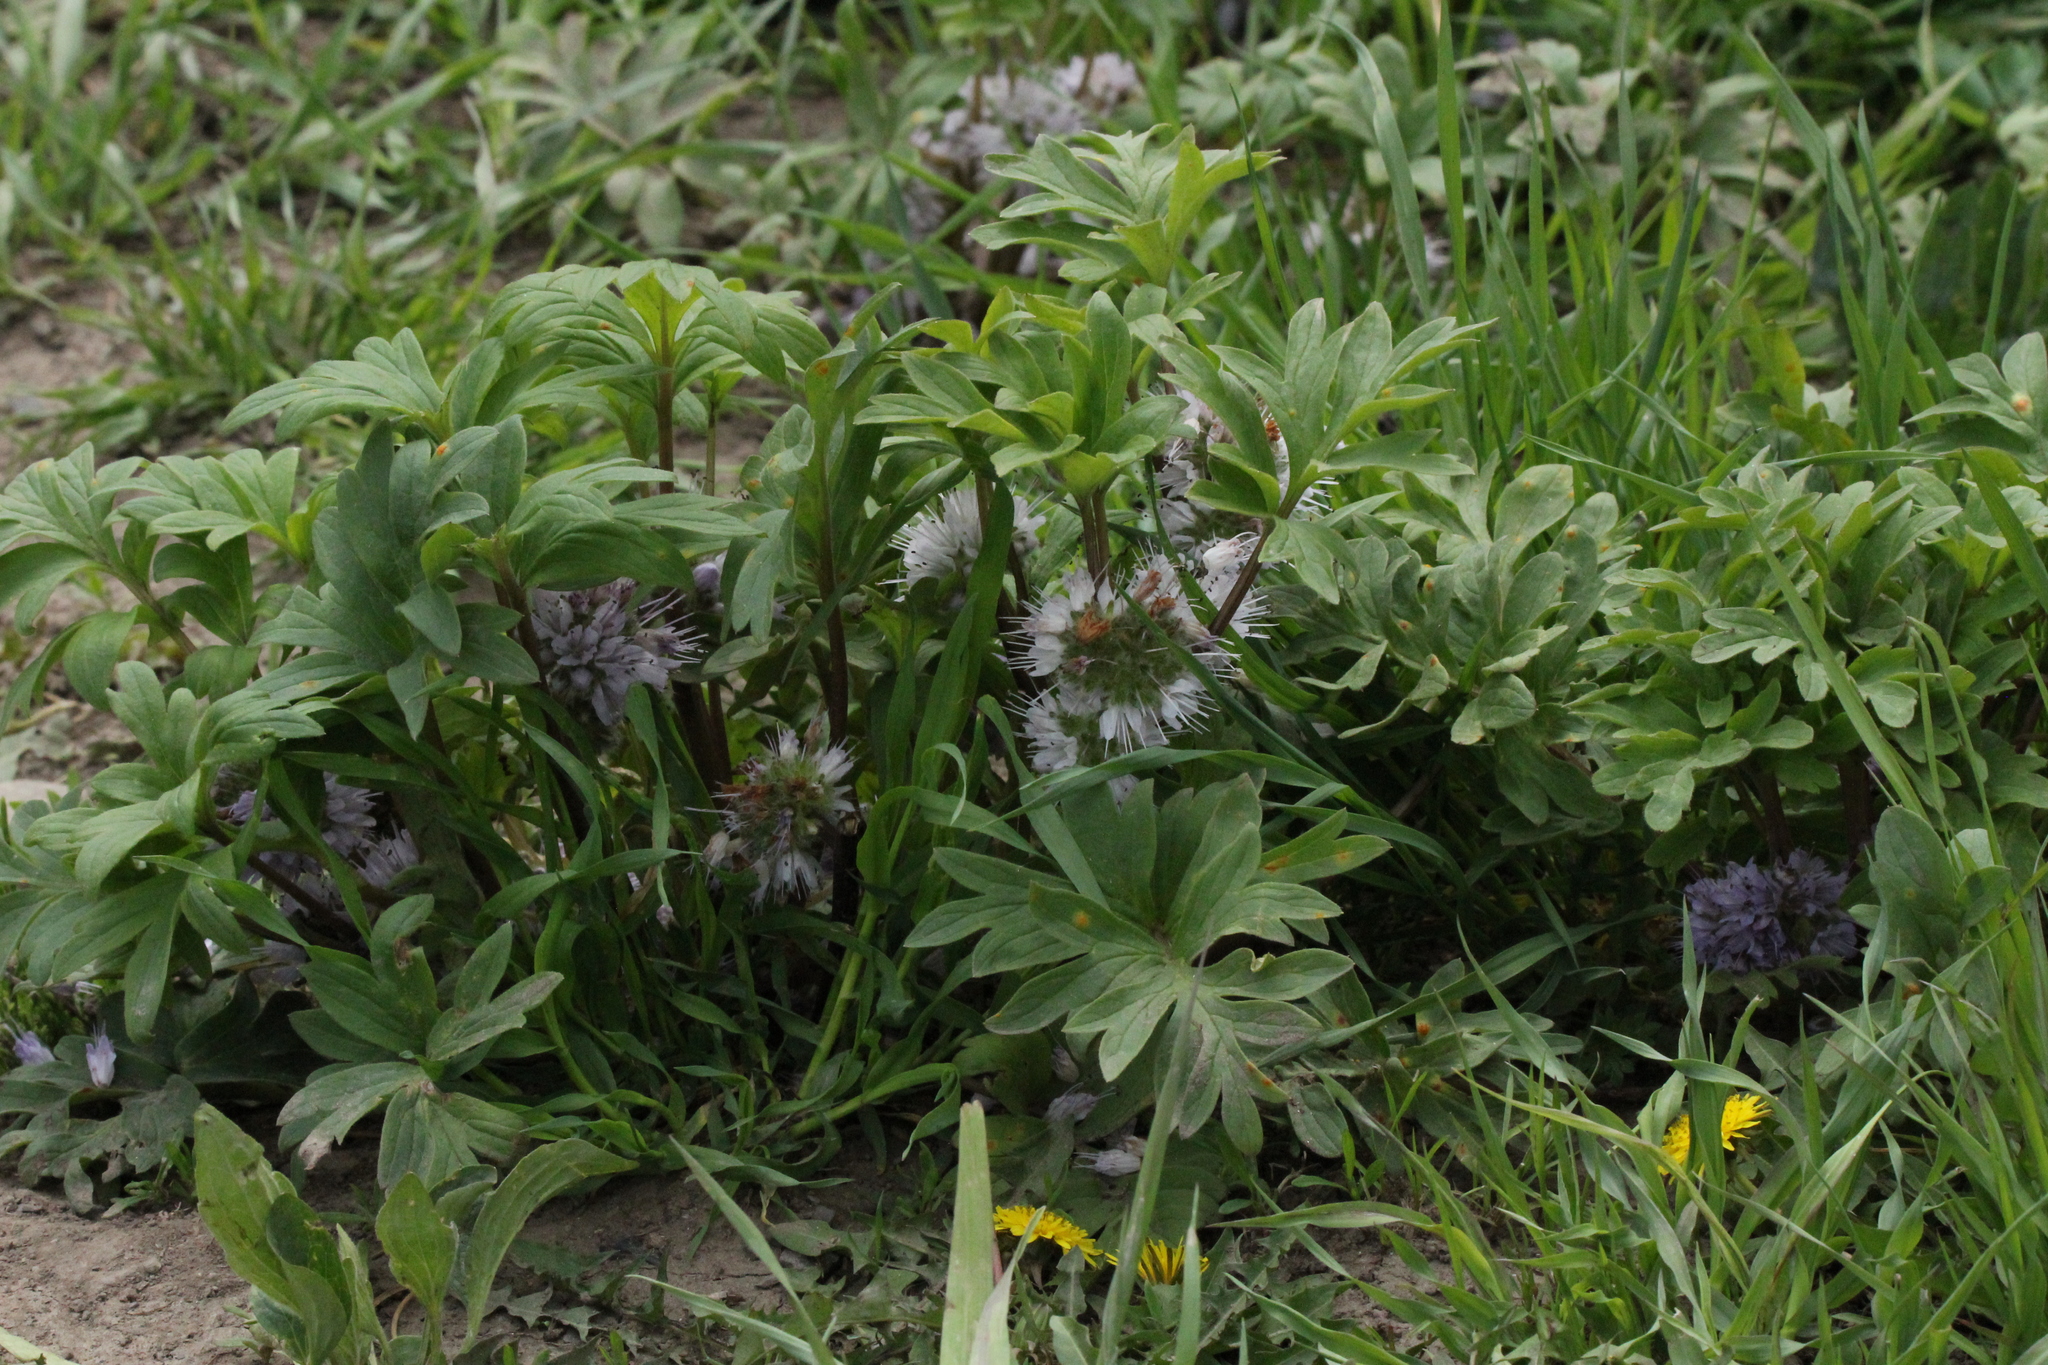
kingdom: Plantae
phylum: Tracheophyta
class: Magnoliopsida
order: Boraginales
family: Hydrophyllaceae
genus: Hydrophyllum
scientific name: Hydrophyllum capitatum
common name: Woollen-breeches
